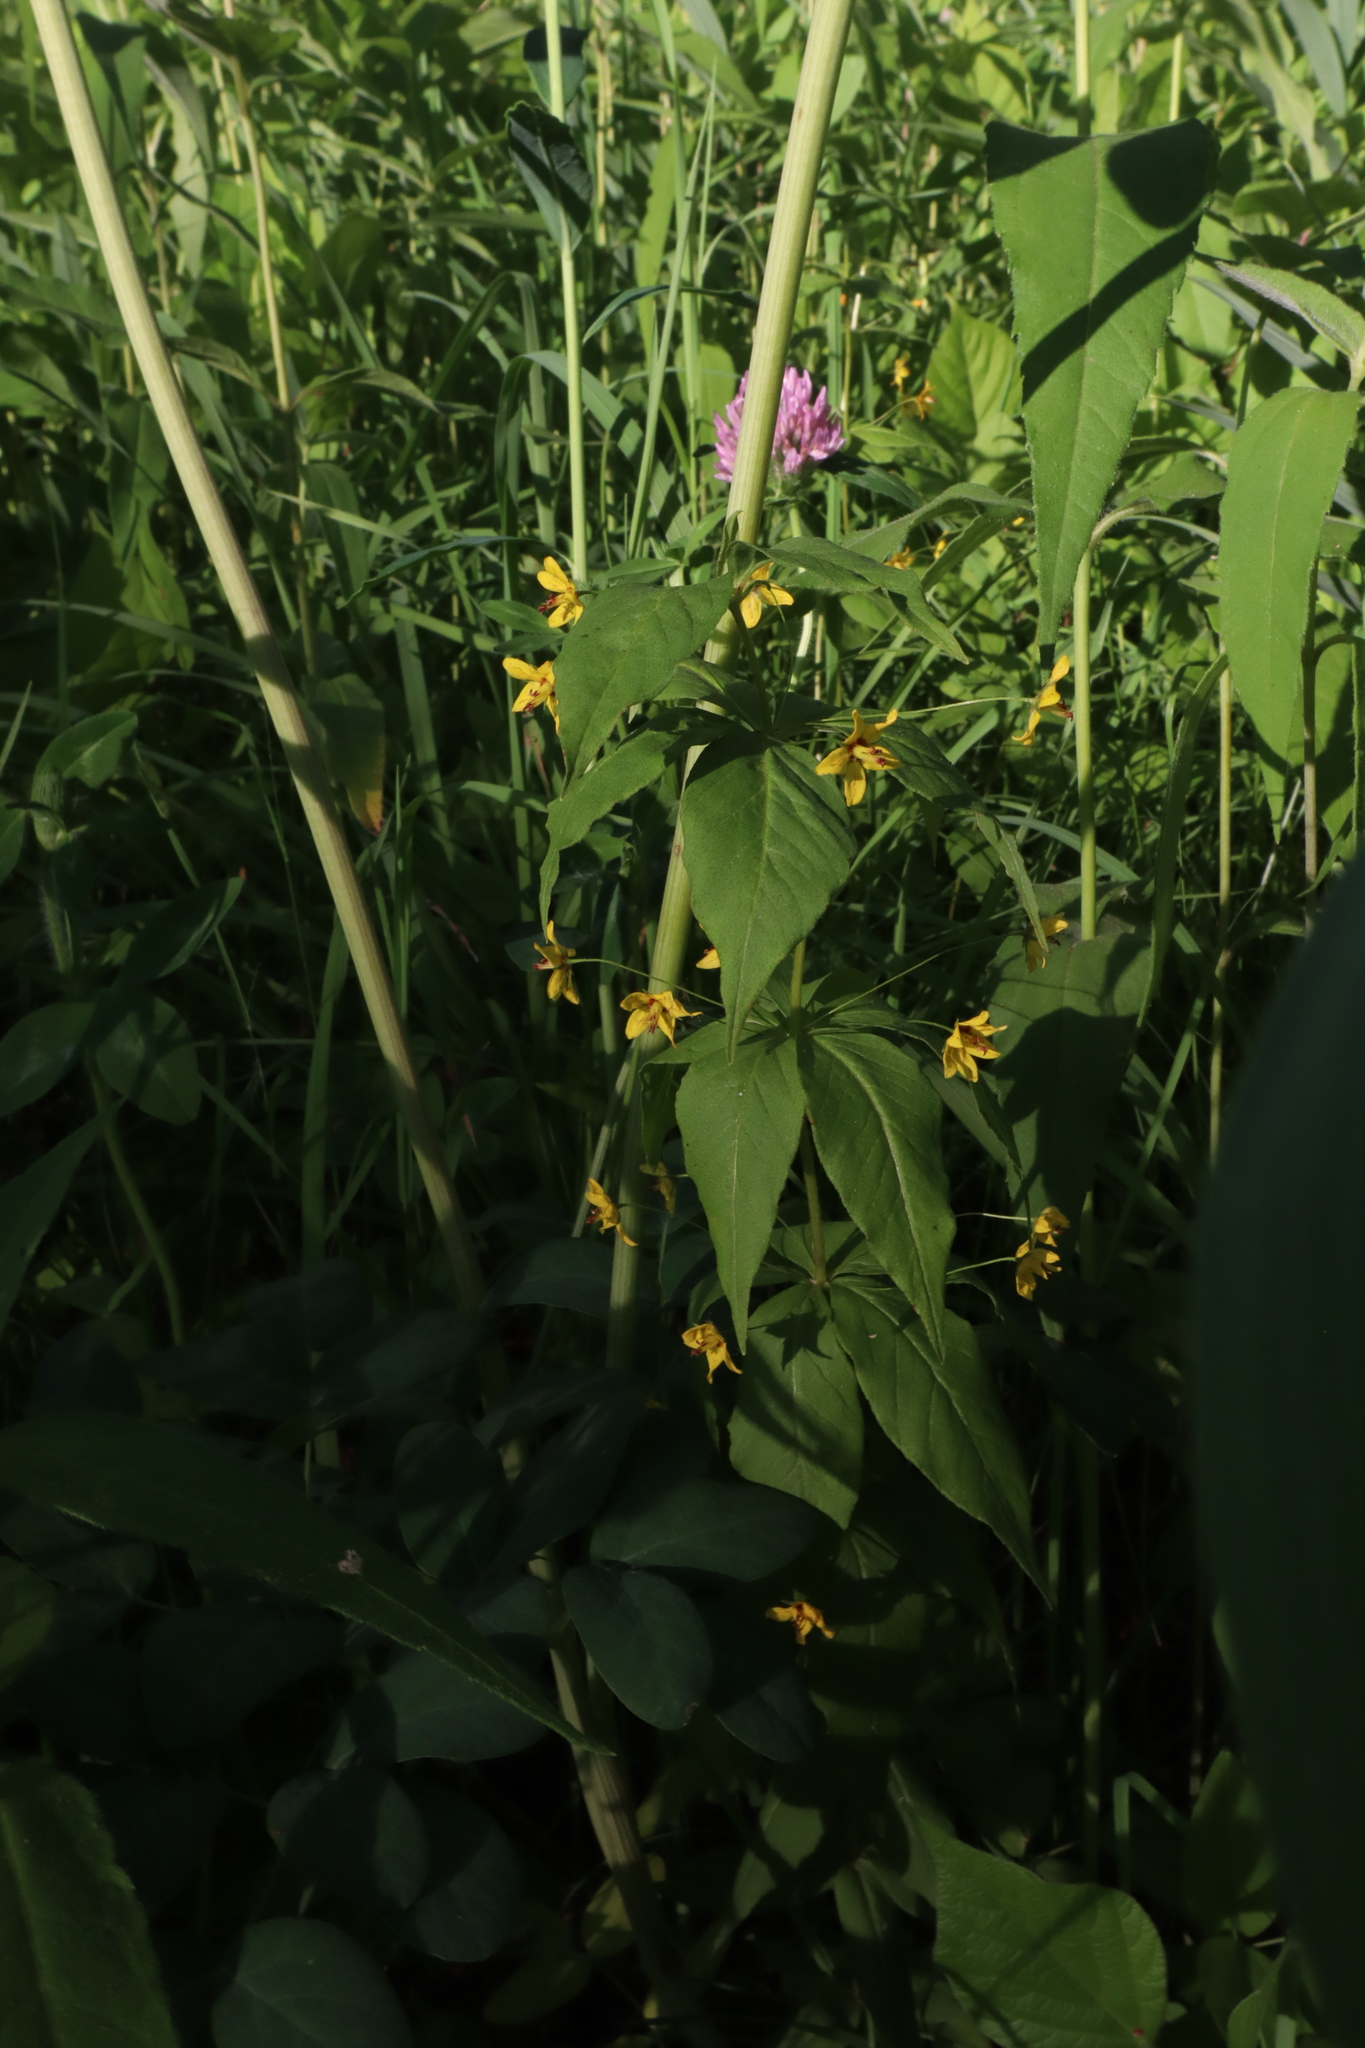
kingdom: Plantae
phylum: Tracheophyta
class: Magnoliopsida
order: Ericales
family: Primulaceae
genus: Lysimachia
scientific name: Lysimachia quadrifolia
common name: Whorled loosestrife
